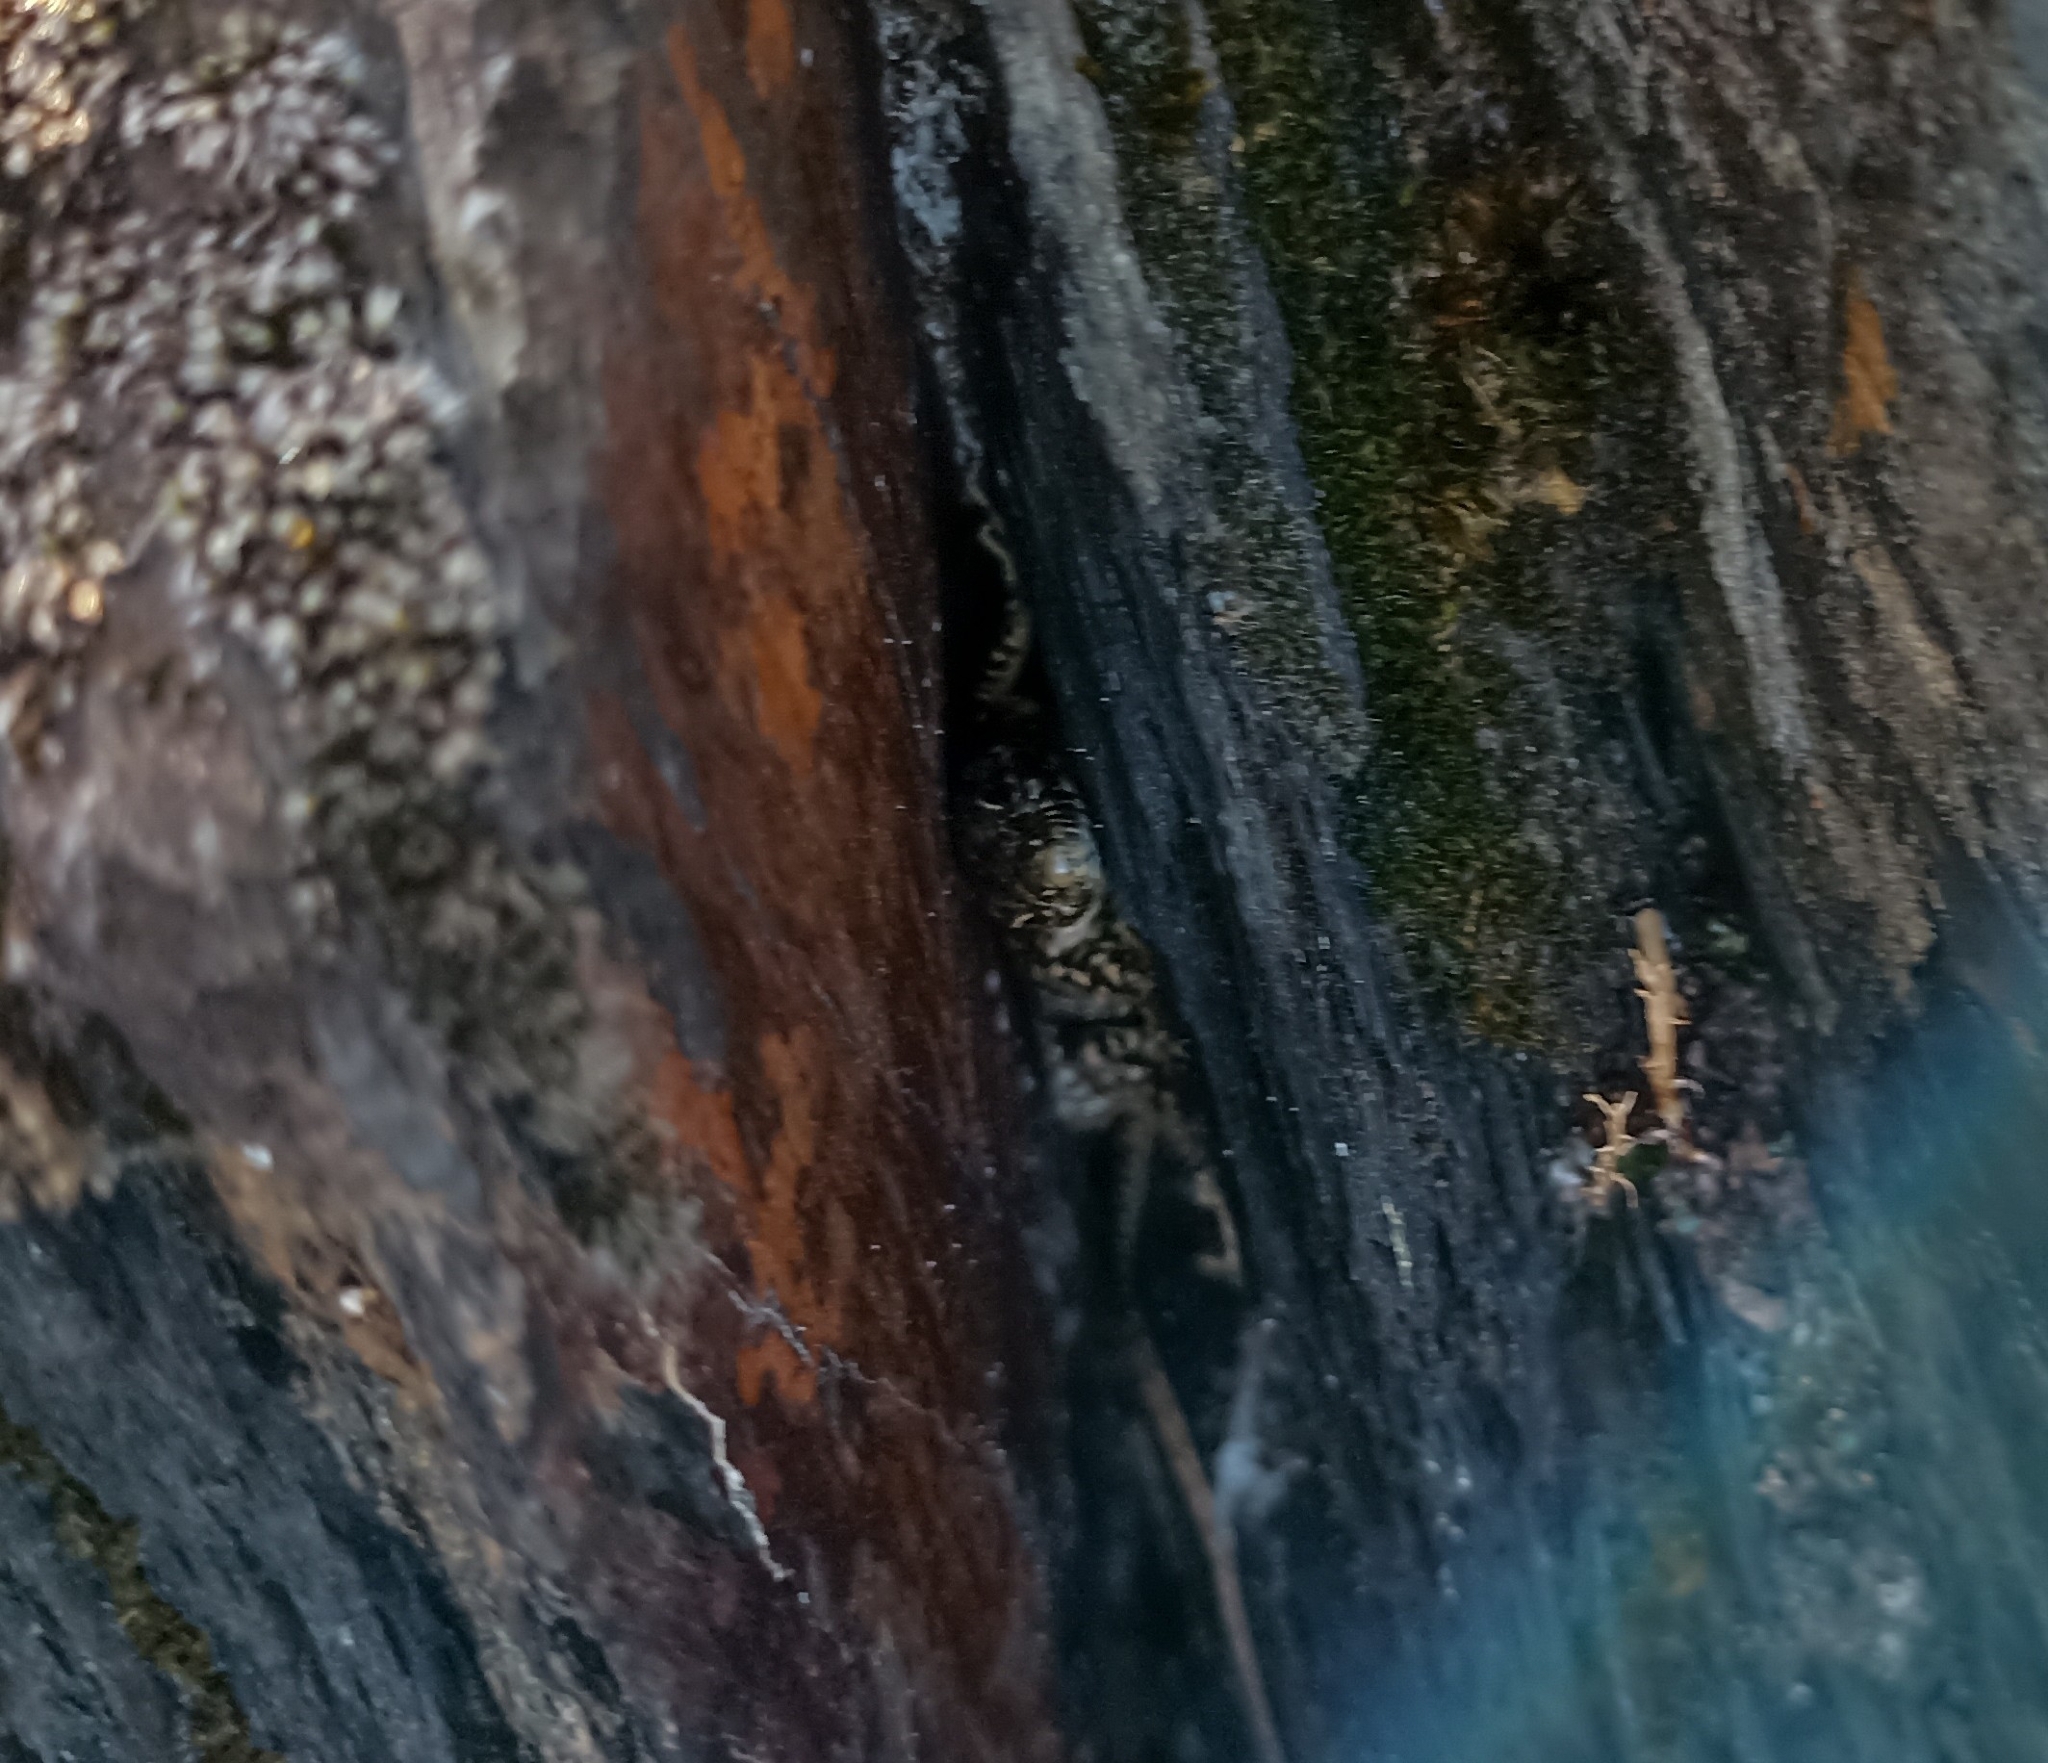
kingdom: Animalia
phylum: Chordata
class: Squamata
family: Lacertidae
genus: Podarcis
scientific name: Podarcis muralis
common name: Common wall lizard
